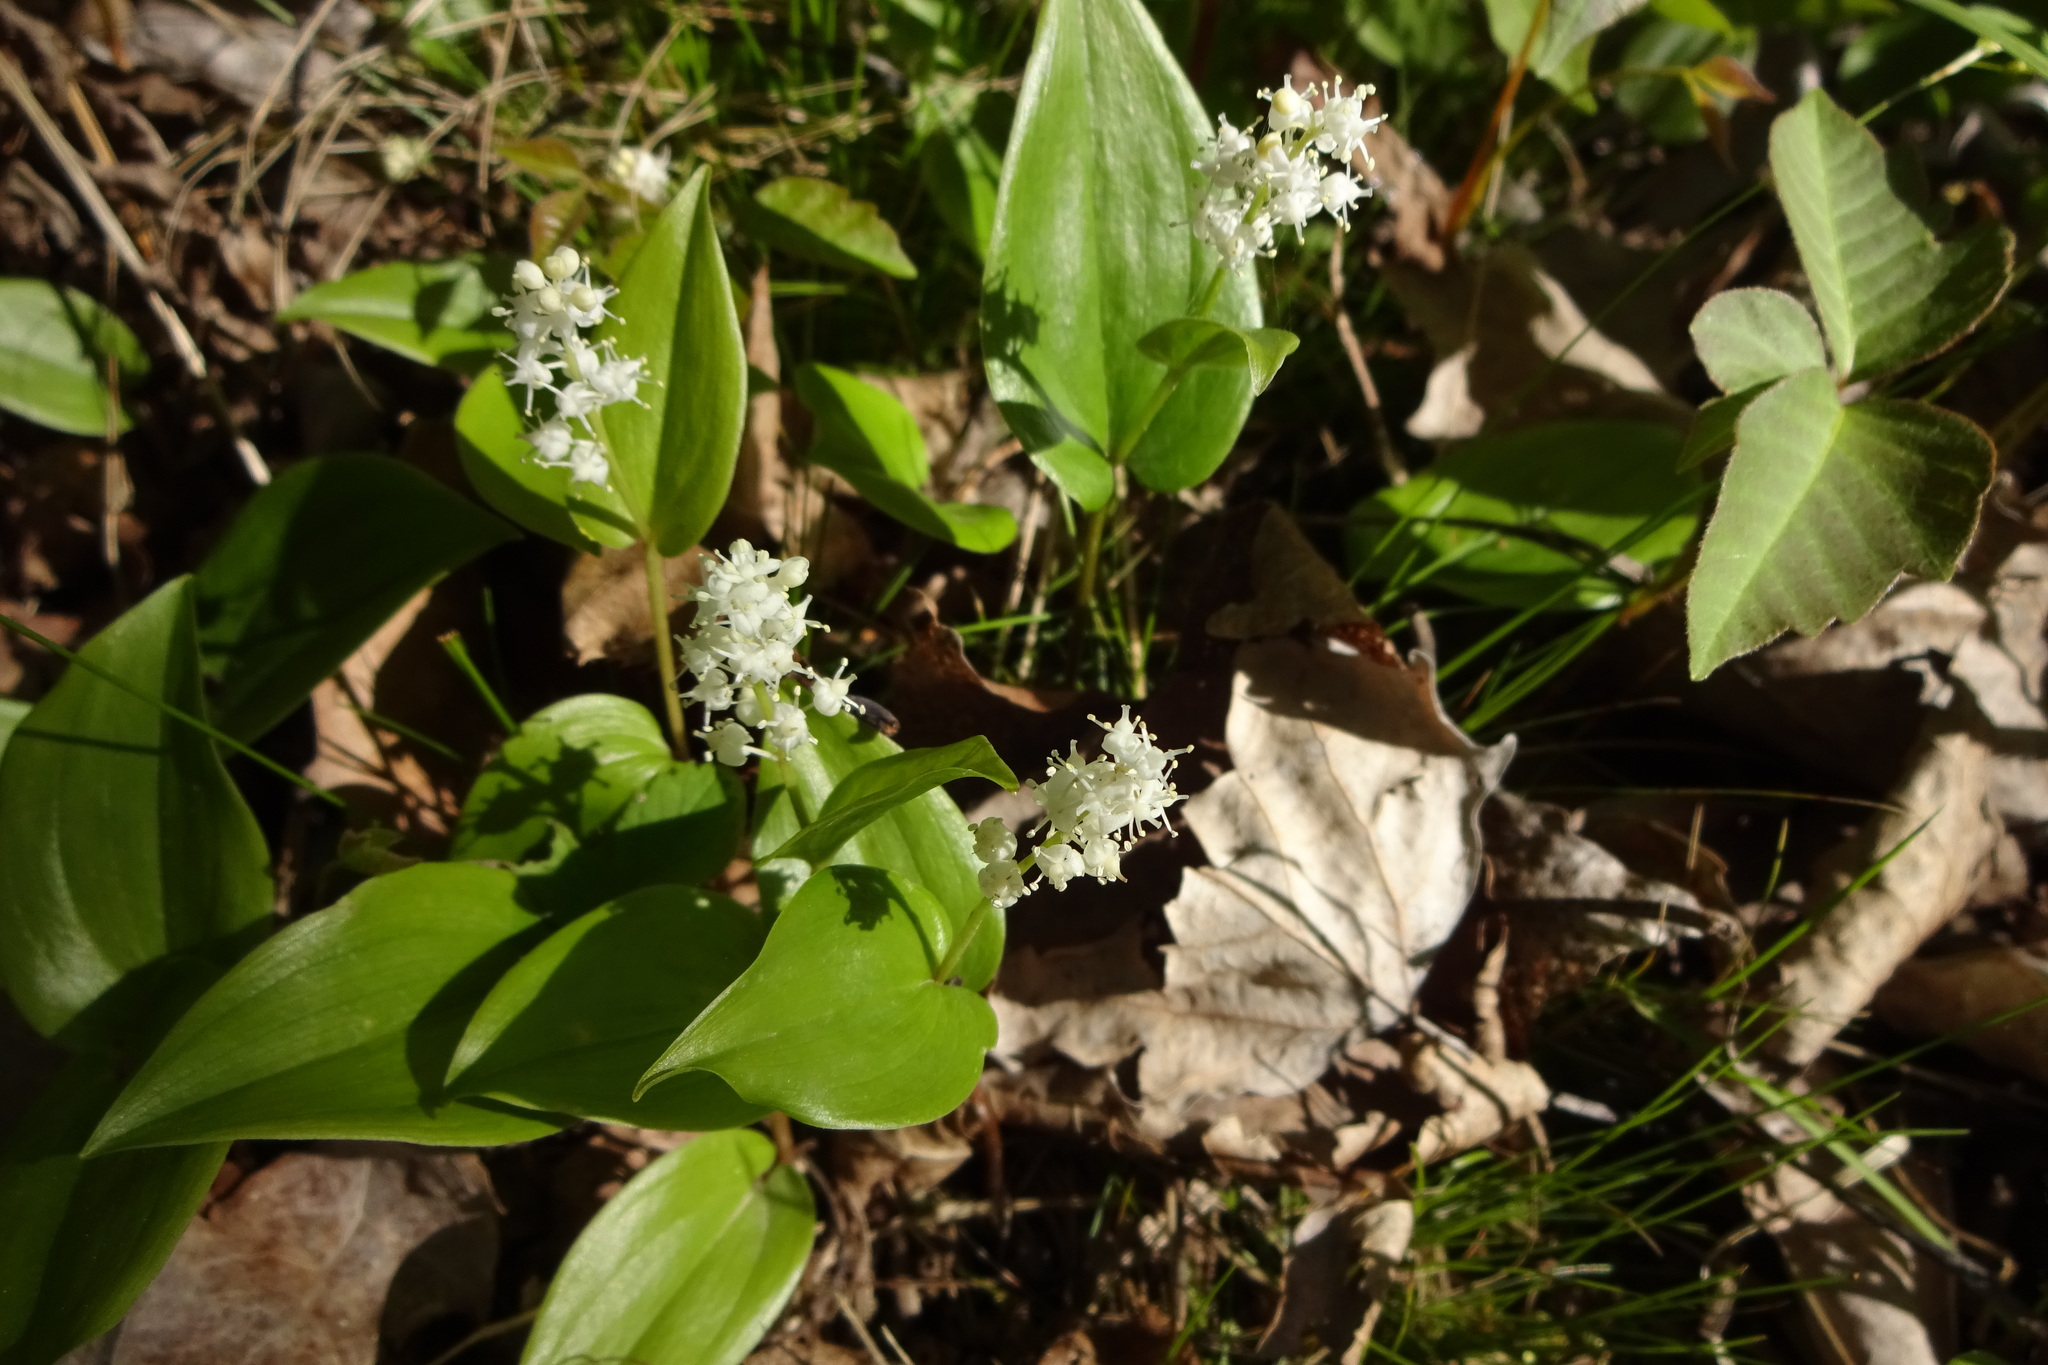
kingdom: Plantae
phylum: Tracheophyta
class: Liliopsida
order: Asparagales
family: Asparagaceae
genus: Maianthemum
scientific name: Maianthemum canadense
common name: False lily-of-the-valley
